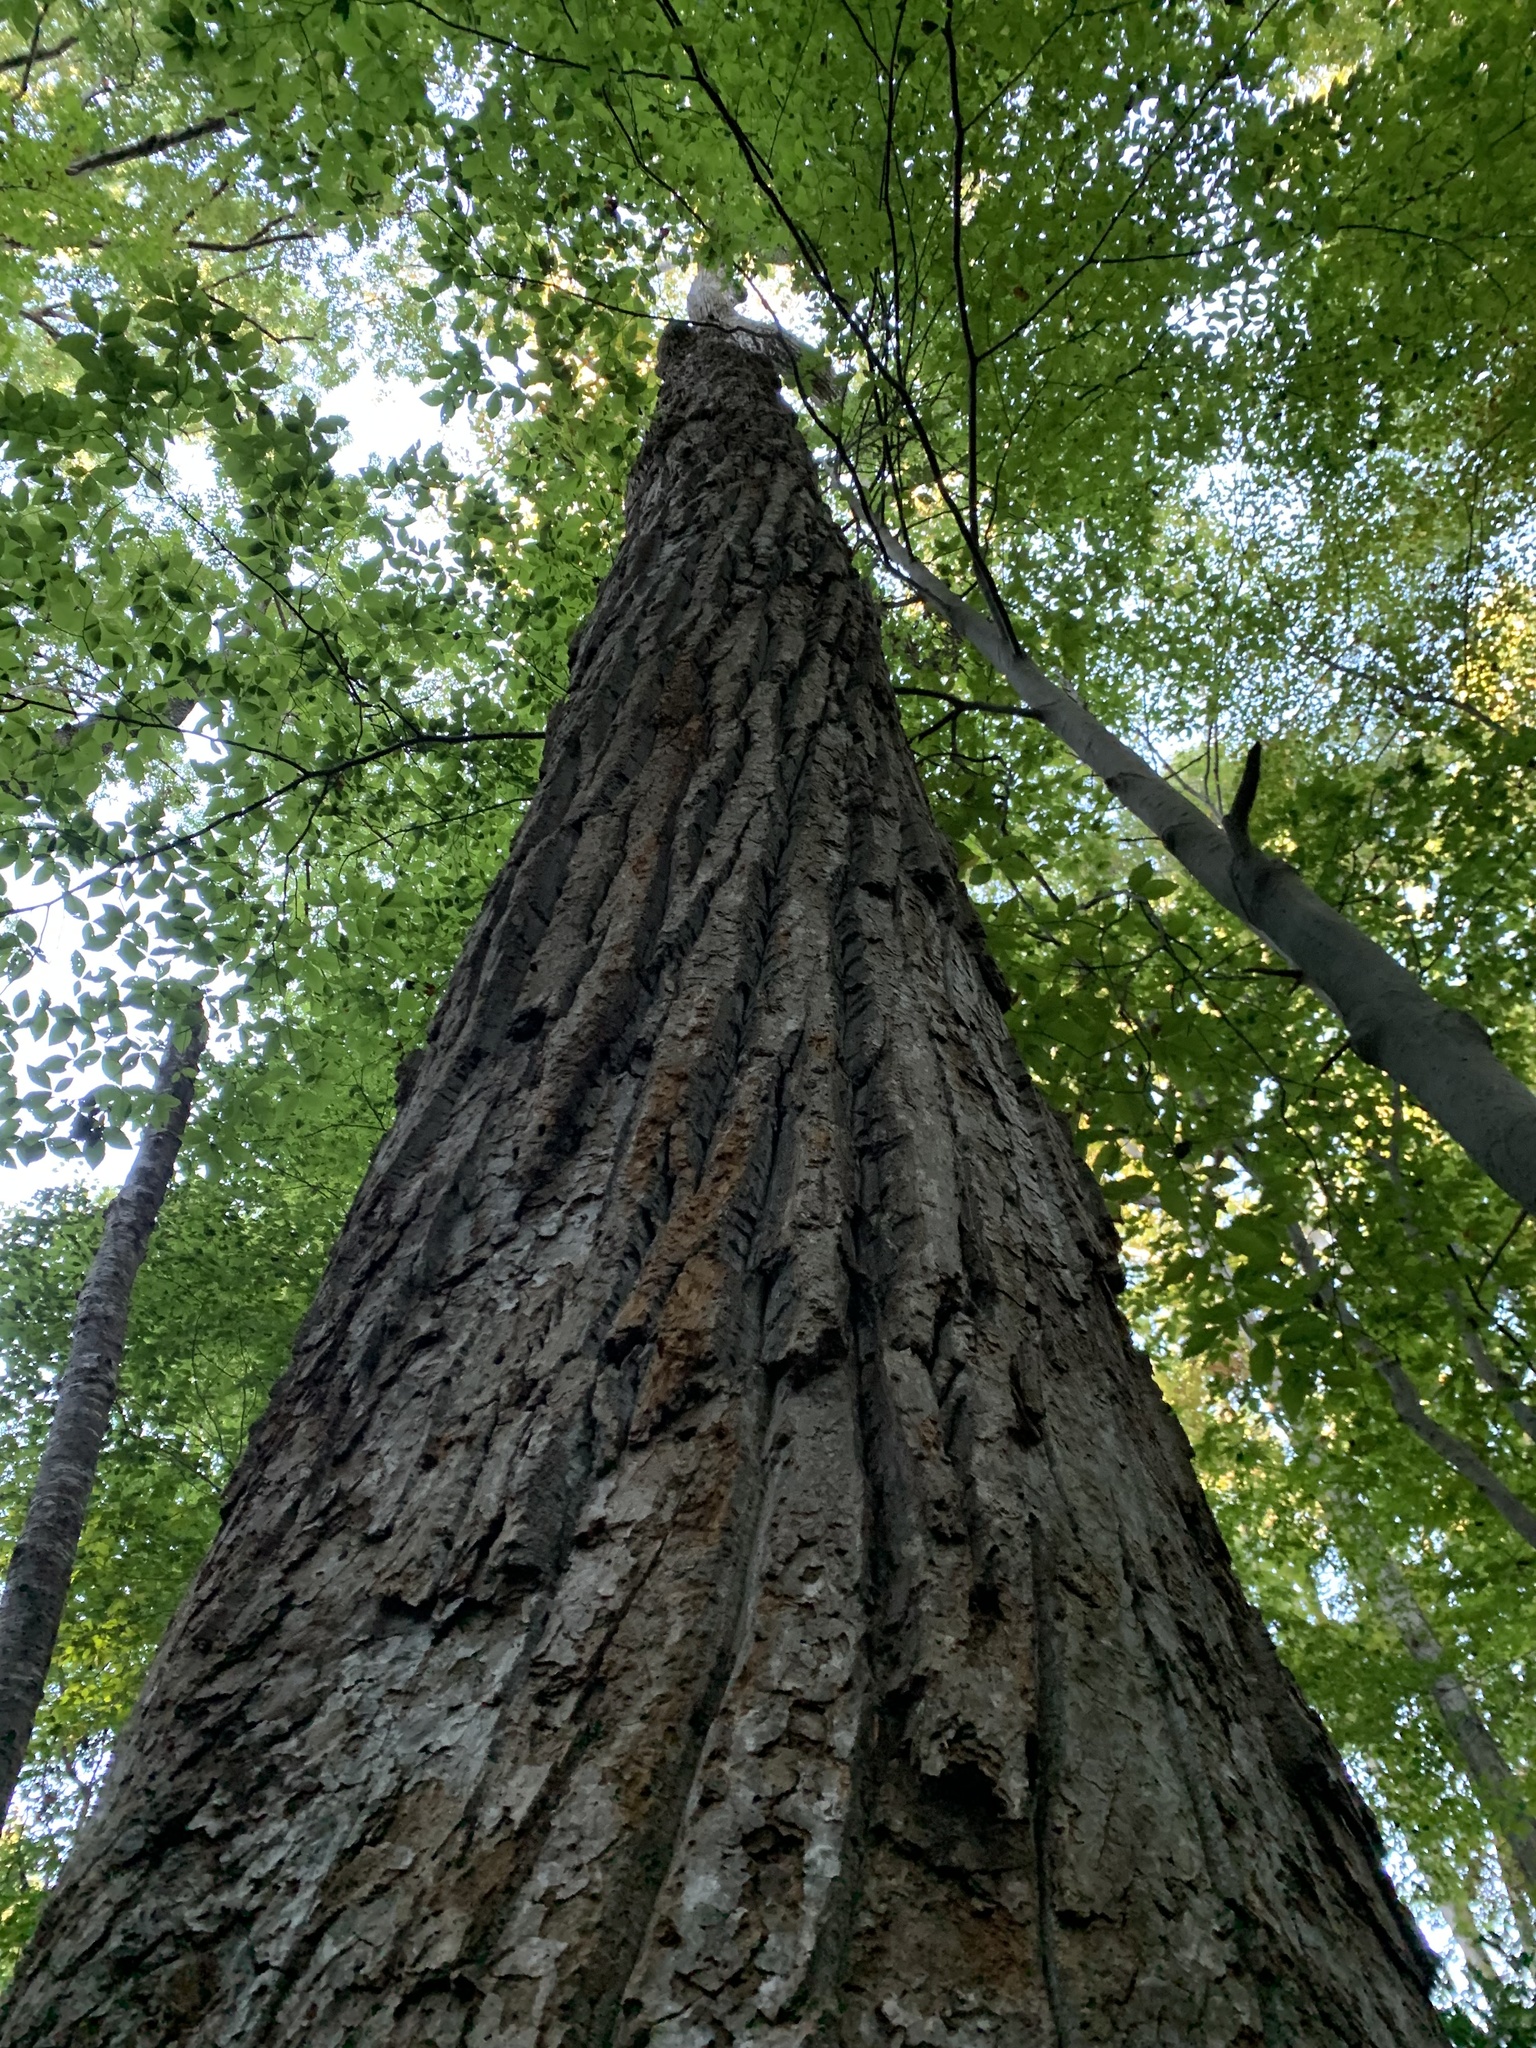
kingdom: Plantae
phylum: Tracheophyta
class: Magnoliopsida
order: Magnoliales
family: Magnoliaceae
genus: Liriodendron
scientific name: Liriodendron tulipifera
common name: Tulip tree
